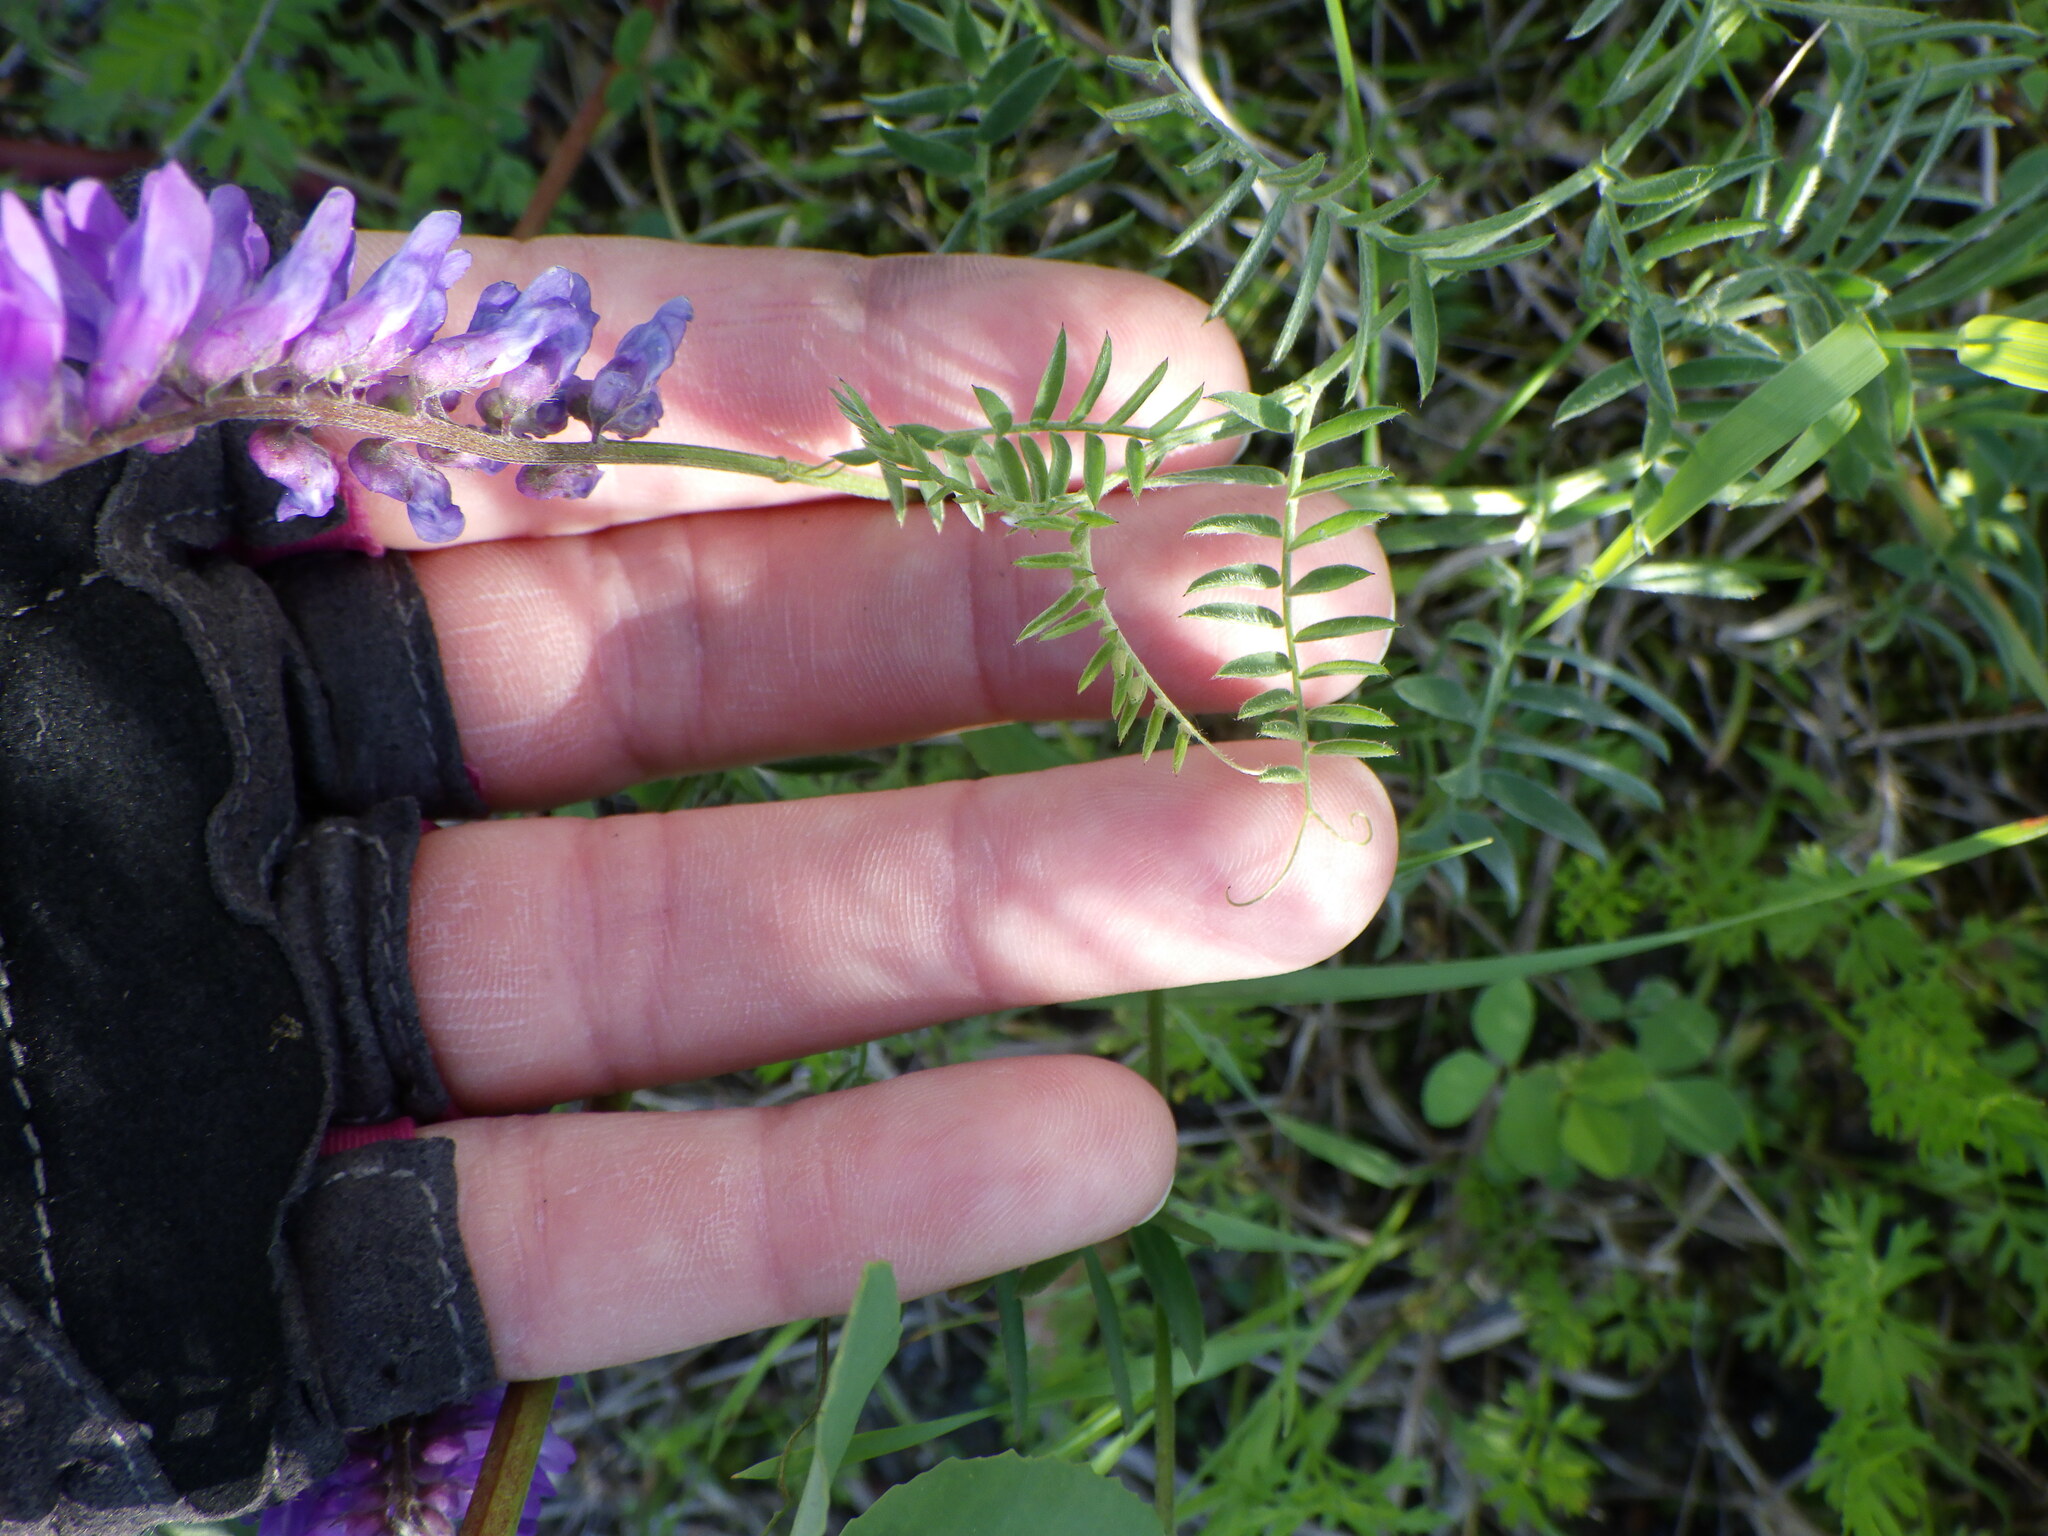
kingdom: Plantae
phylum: Tracheophyta
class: Magnoliopsida
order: Fabales
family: Fabaceae
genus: Vicia
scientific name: Vicia cracca
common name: Bird vetch
